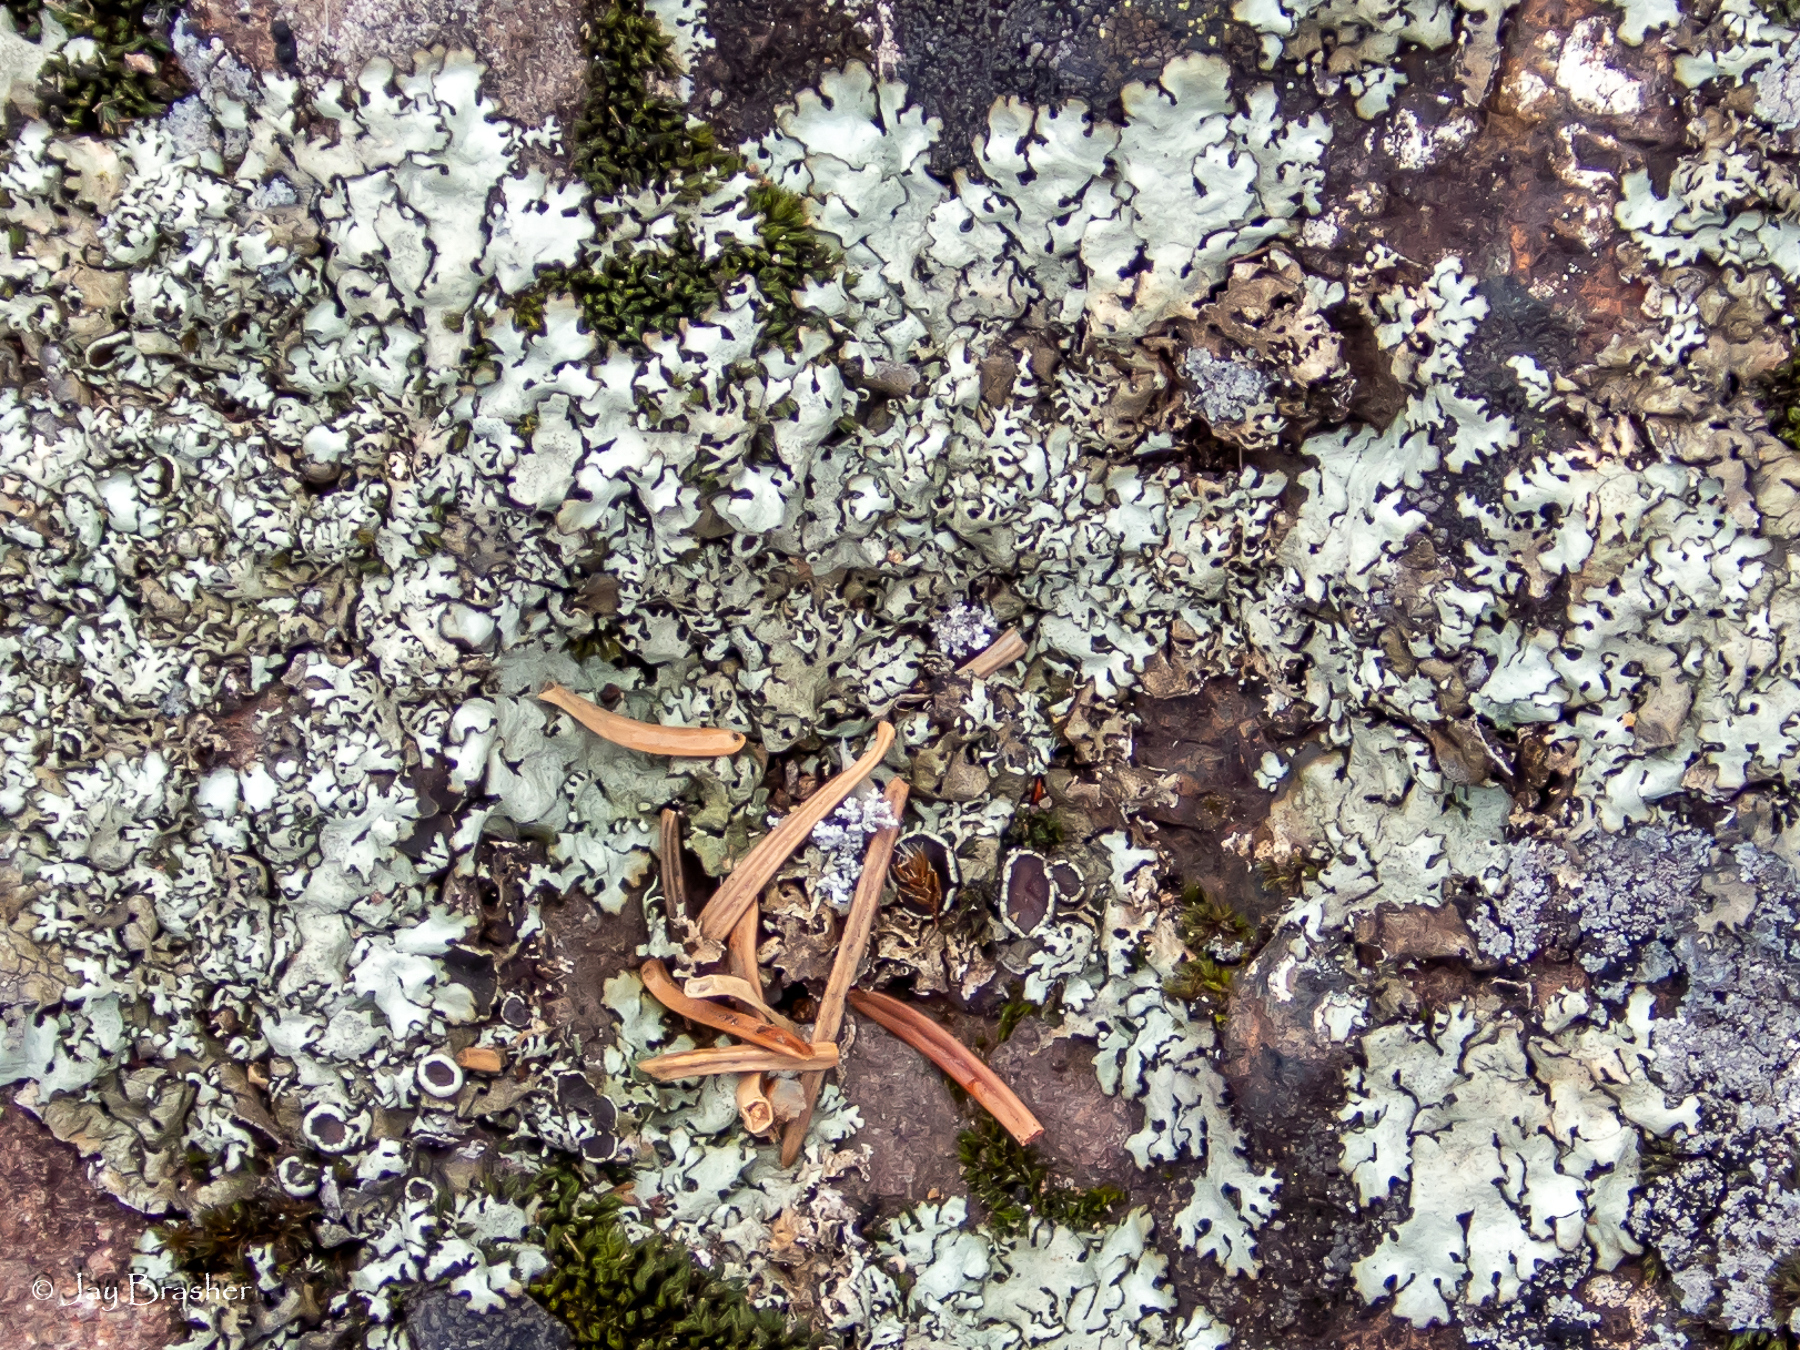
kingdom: Fungi
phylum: Ascomycota
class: Lecanoromycetes
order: Lecanorales
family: Parmeliaceae
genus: Xanthoparmelia
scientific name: Xanthoparmelia cumberlandia
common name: Cumberland rock shield
